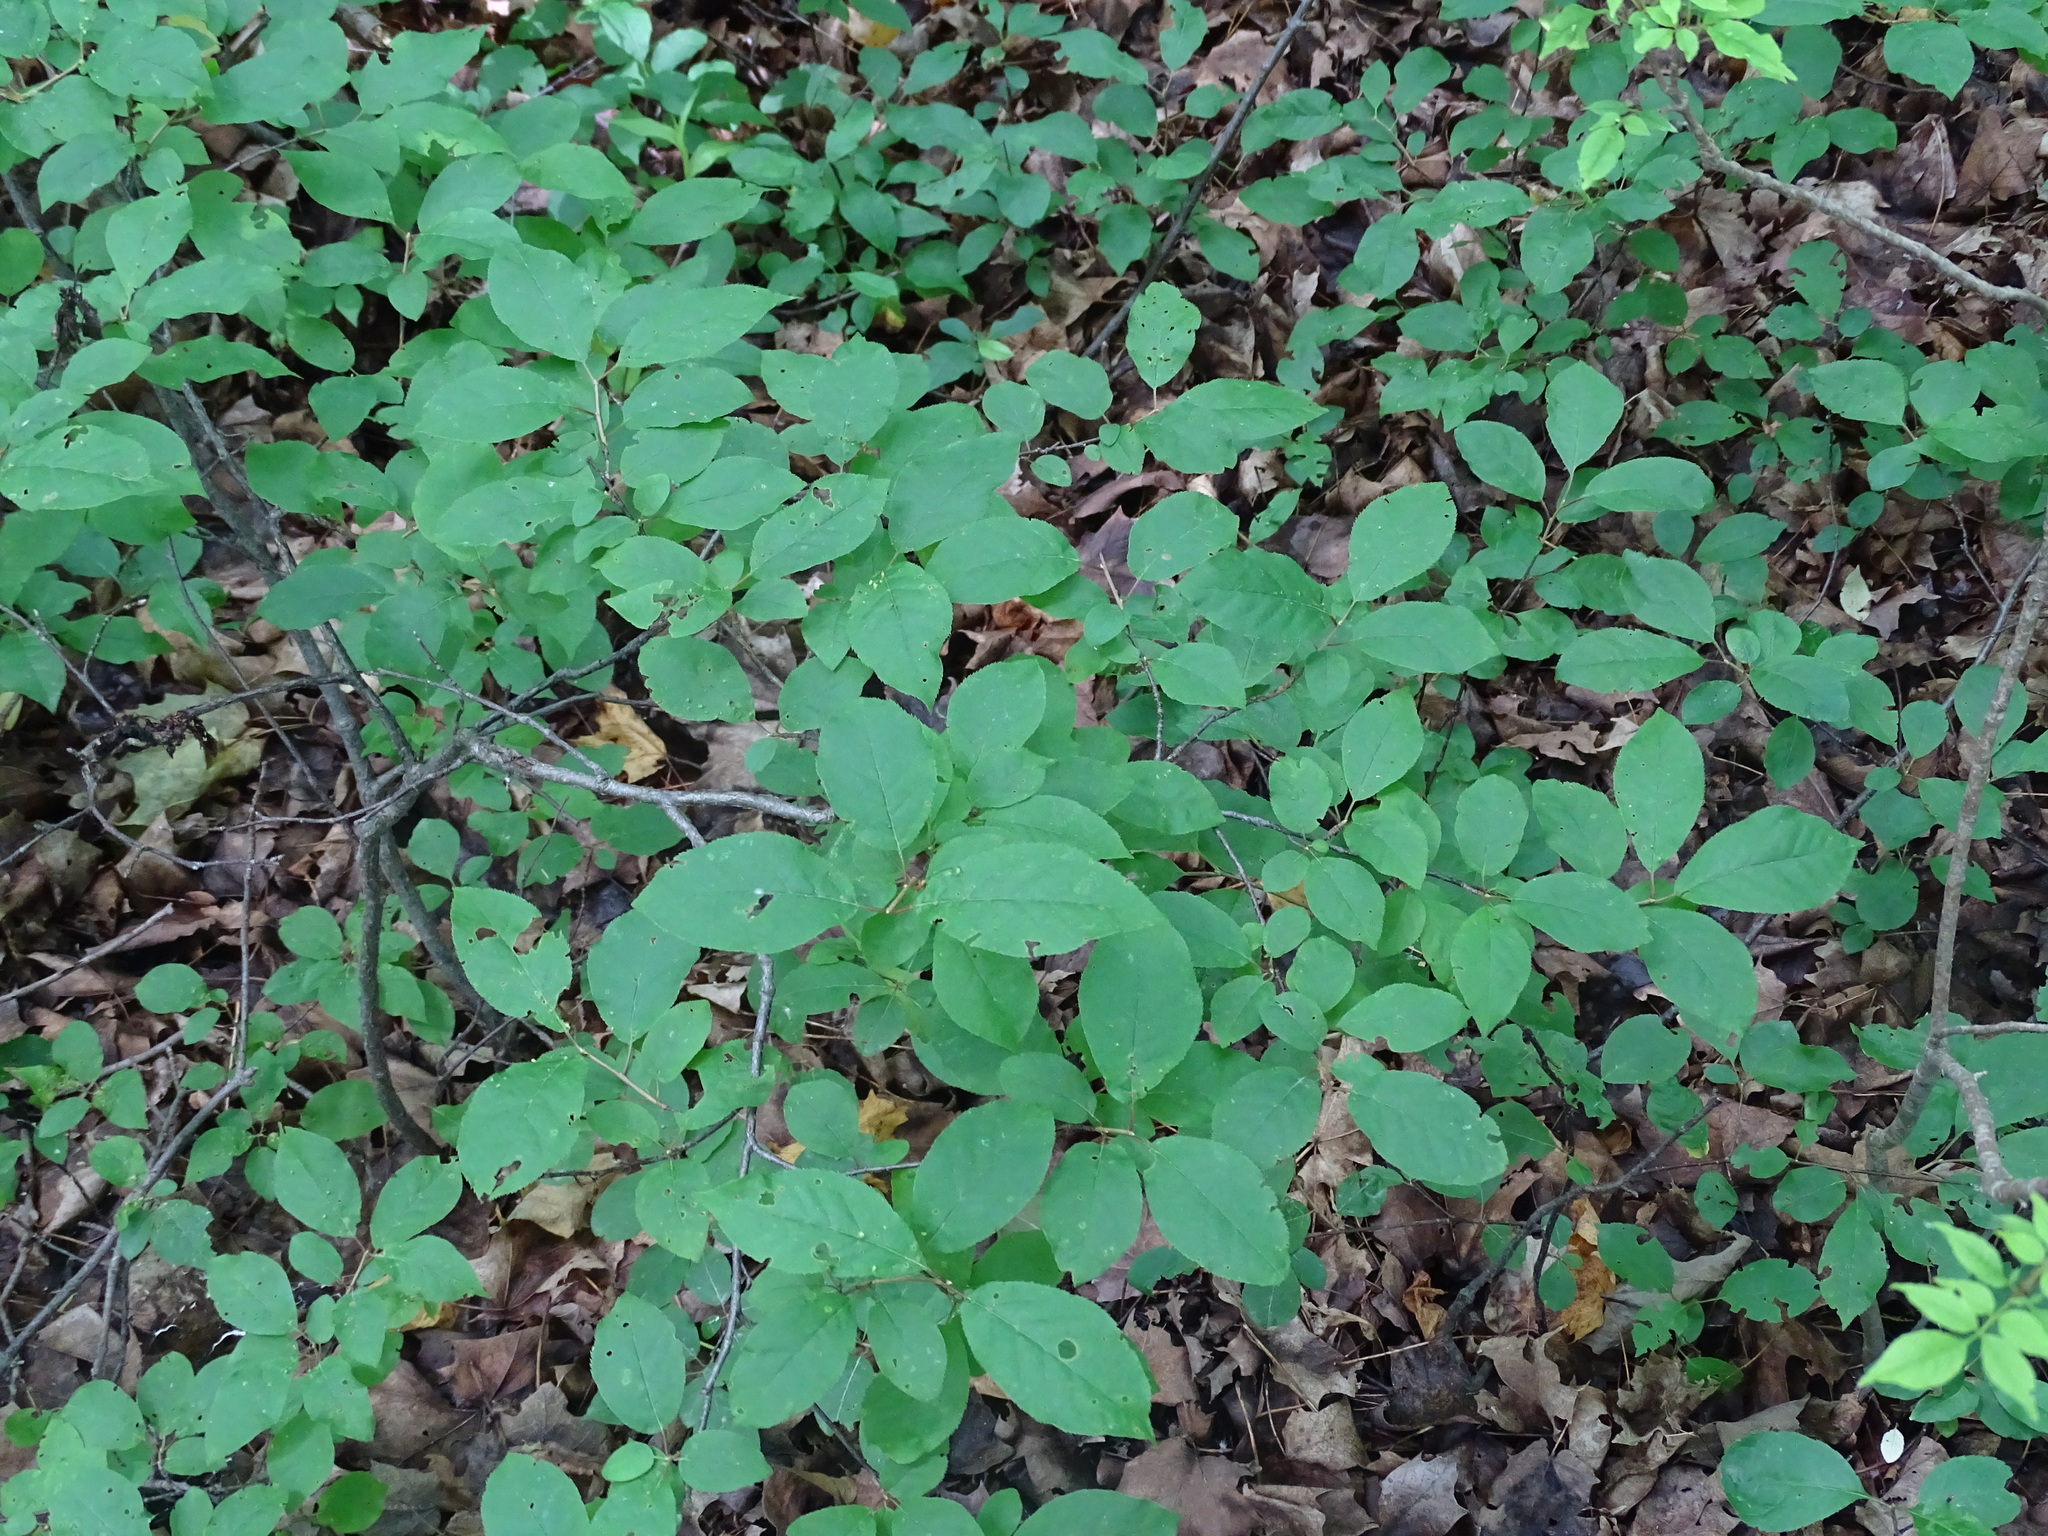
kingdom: Plantae
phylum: Tracheophyta
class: Magnoliopsida
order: Rosales
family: Rosaceae
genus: Prunus
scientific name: Prunus virginiana
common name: Chokecherry
